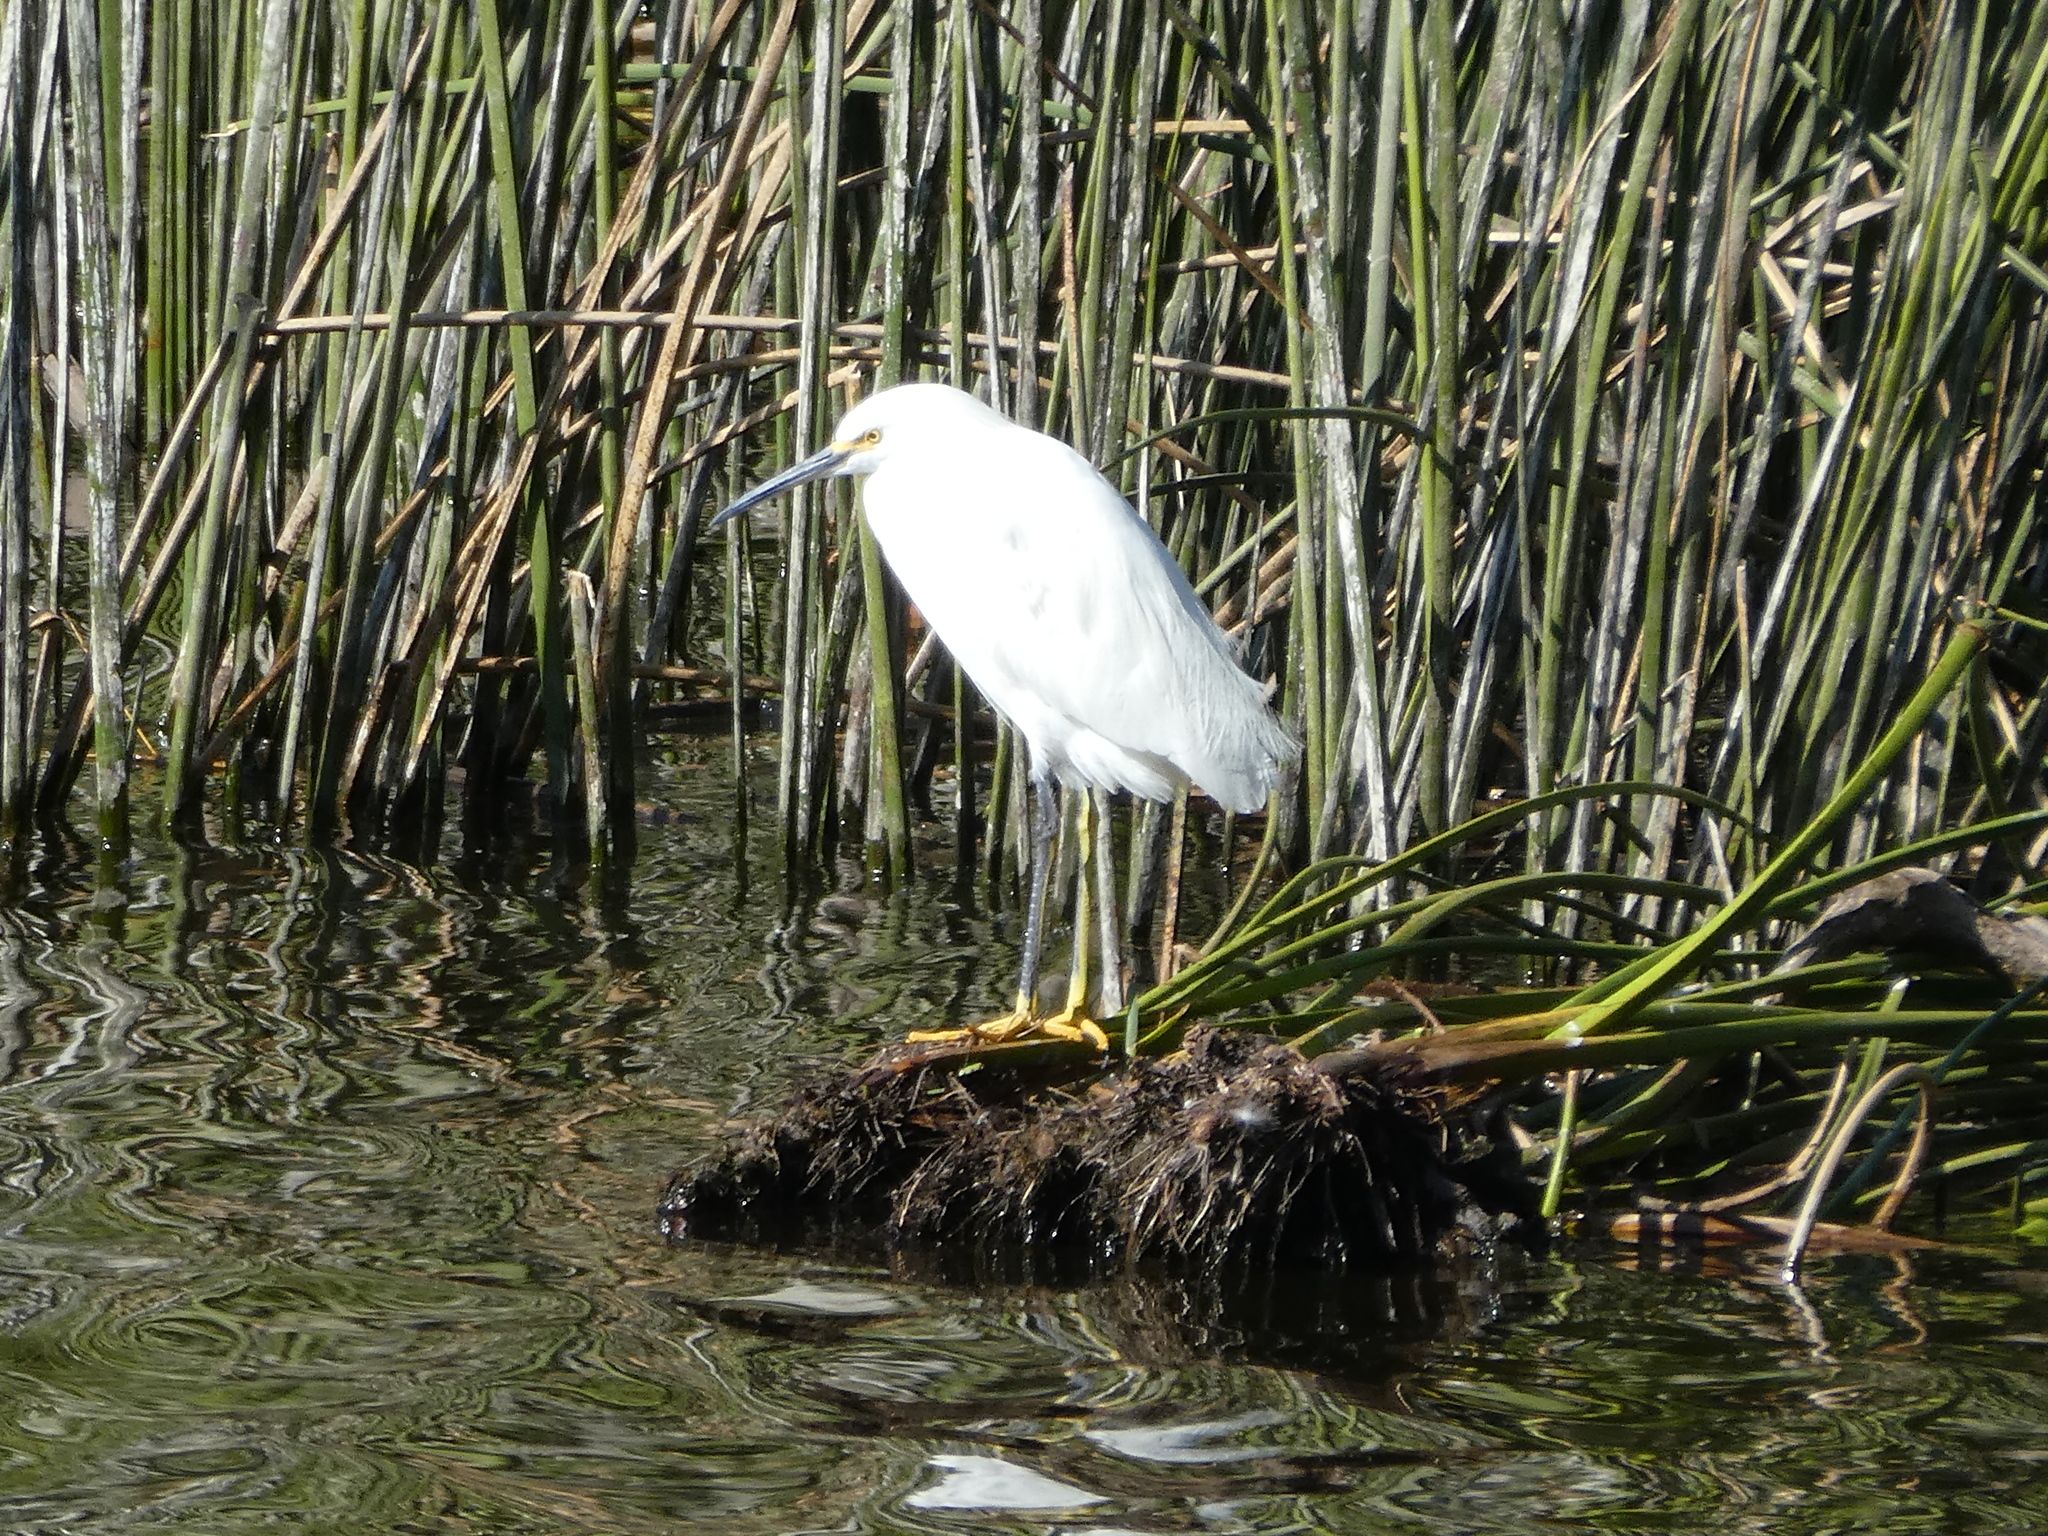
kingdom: Animalia
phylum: Chordata
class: Aves
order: Pelecaniformes
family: Ardeidae
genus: Egretta
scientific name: Egretta thula
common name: Snowy egret
